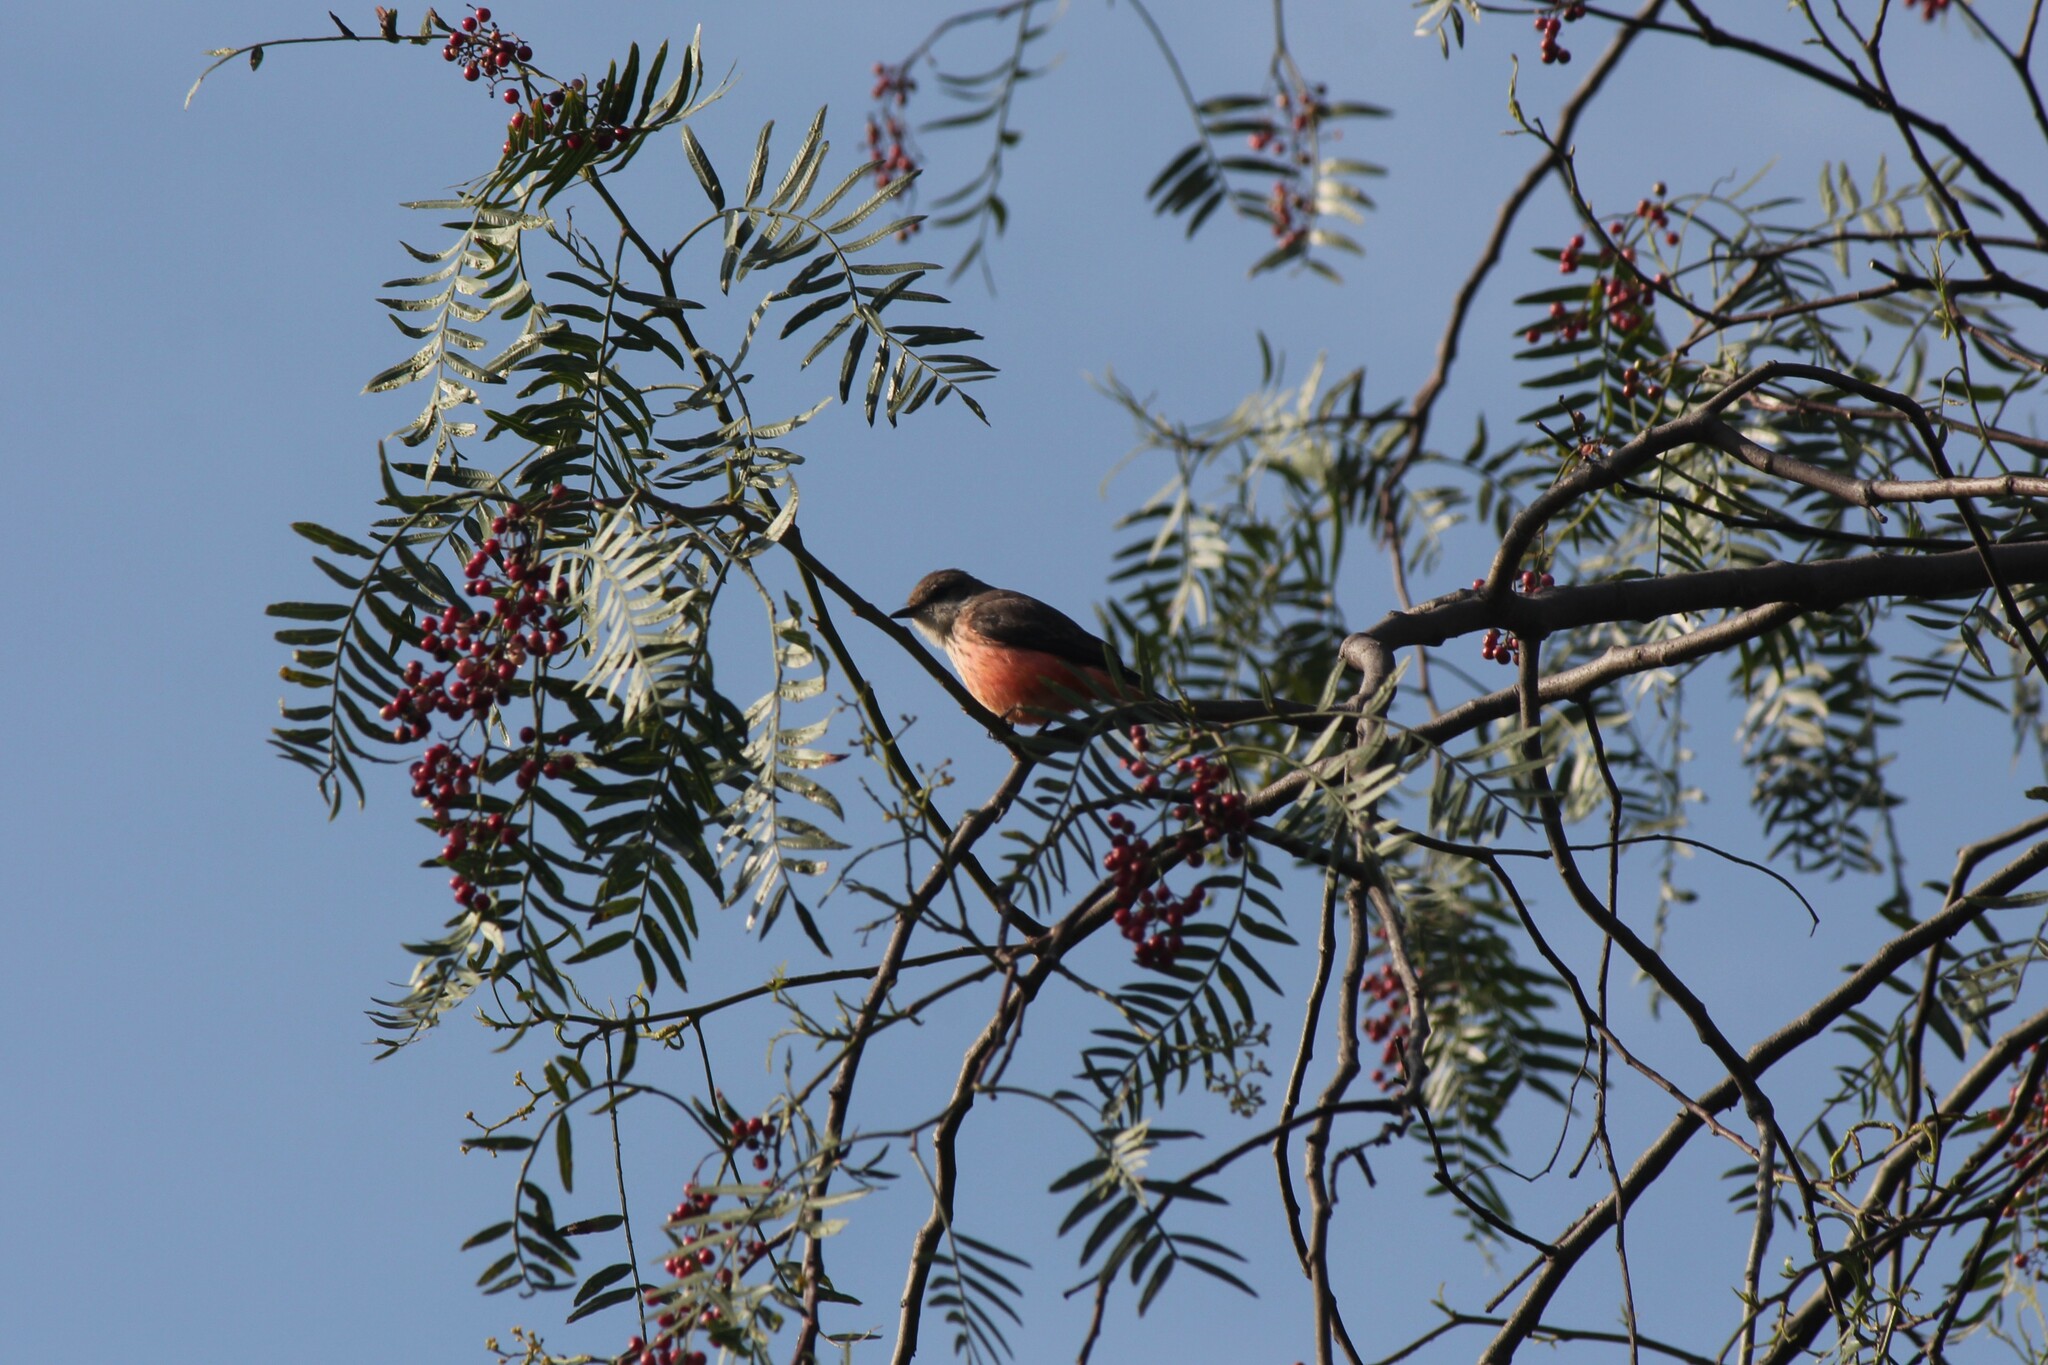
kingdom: Animalia
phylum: Chordata
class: Aves
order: Passeriformes
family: Tyrannidae
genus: Pyrocephalus
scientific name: Pyrocephalus rubinus
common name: Vermilion flycatcher
